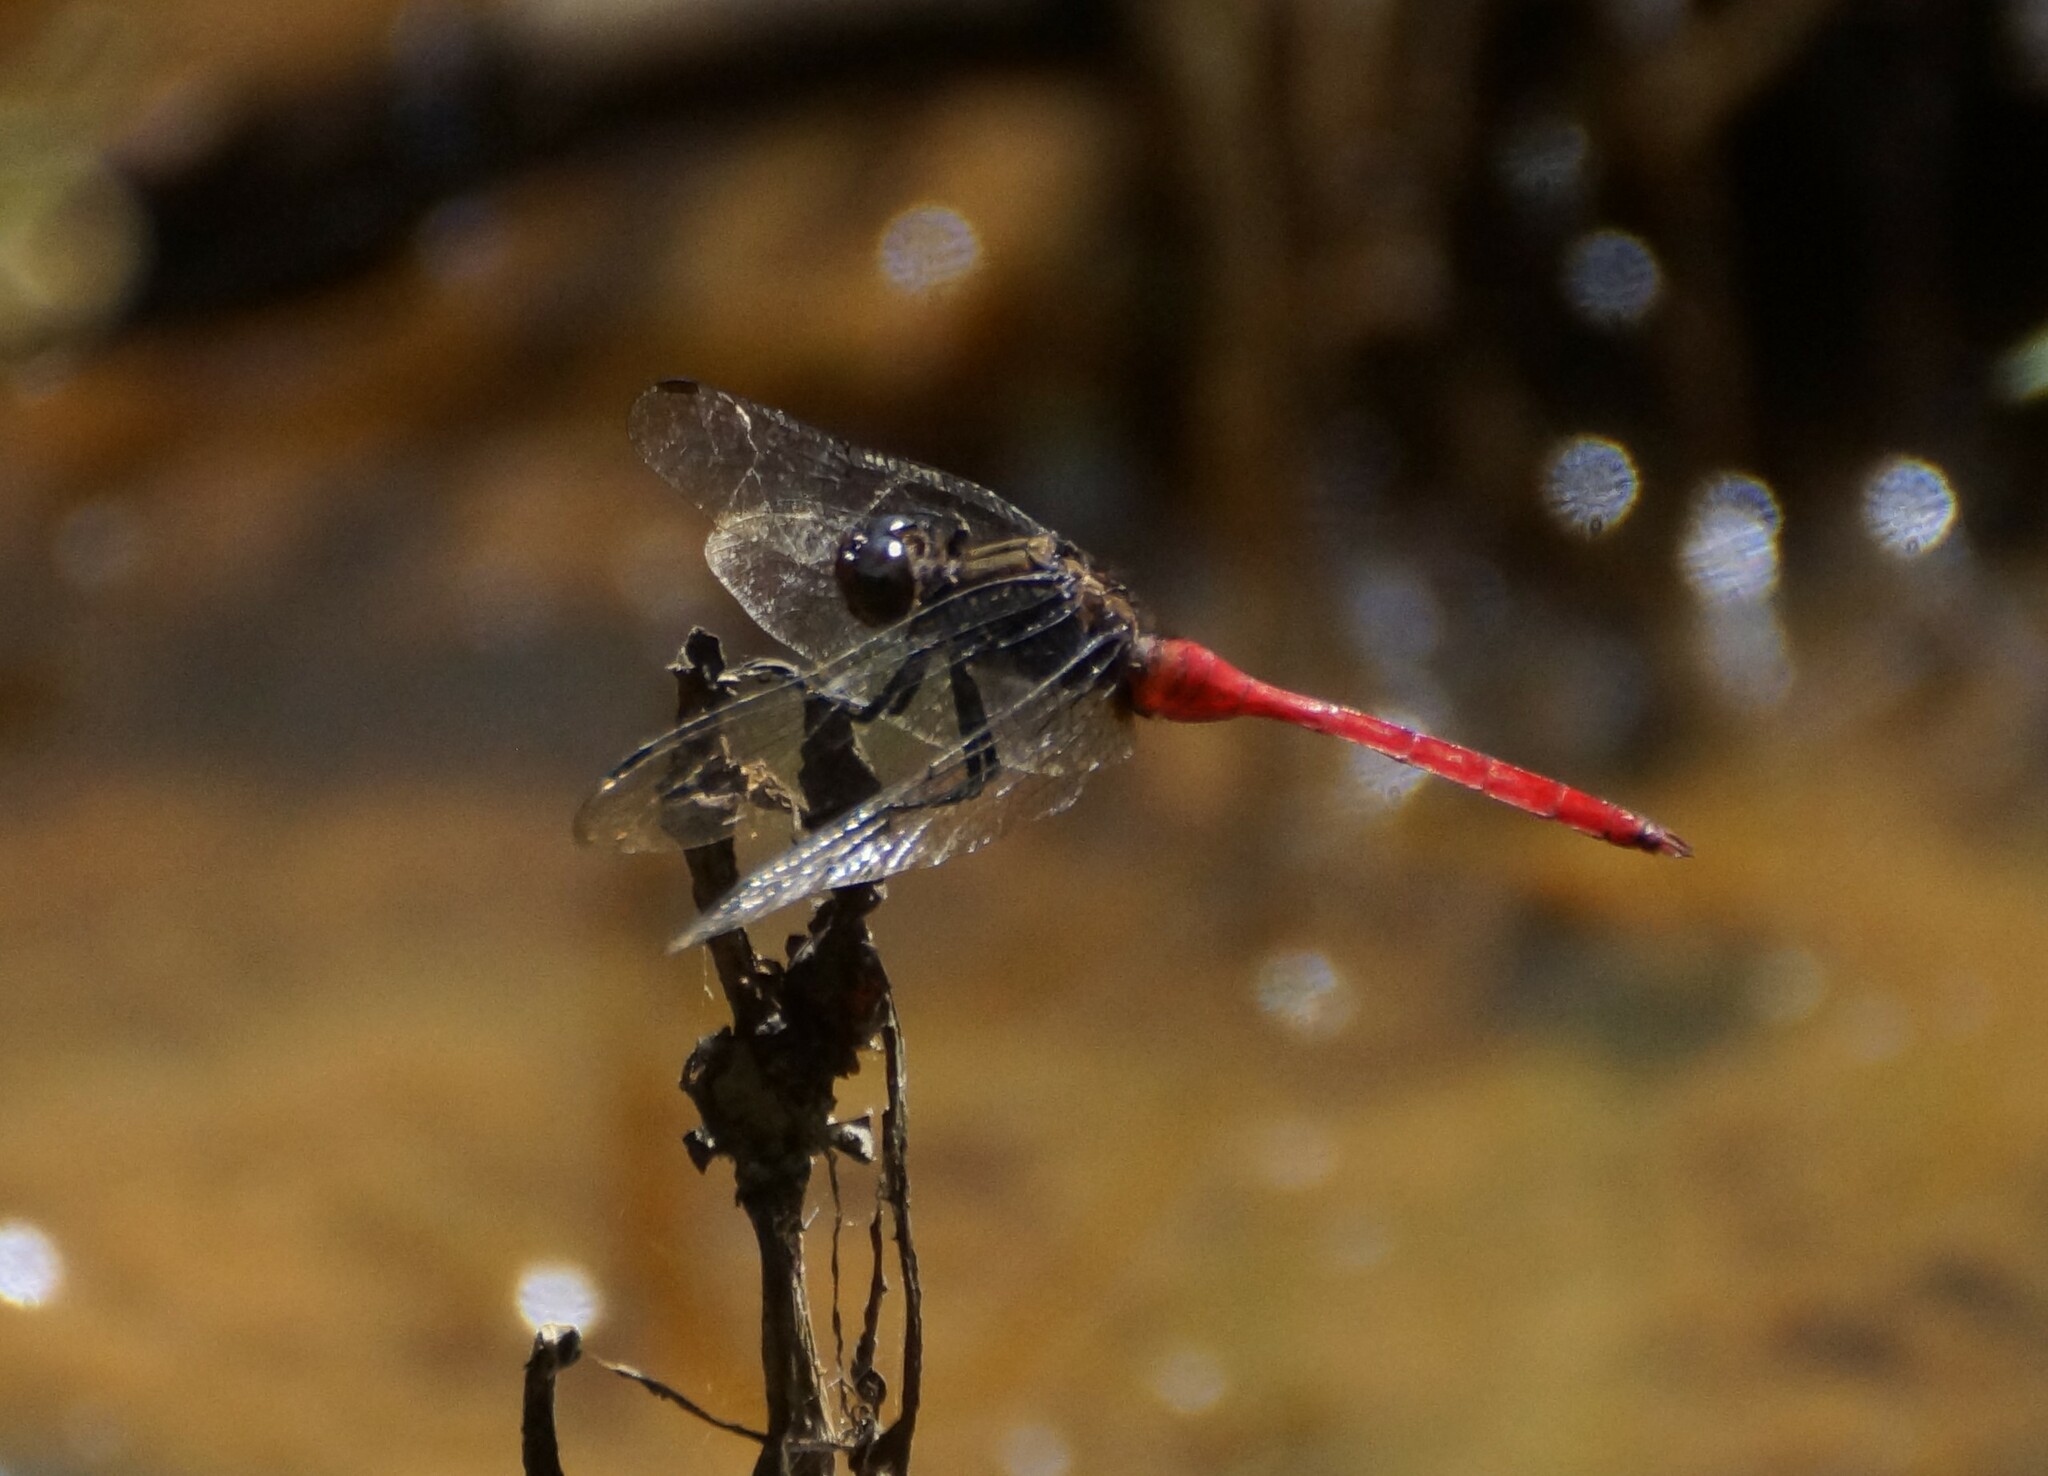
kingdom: Animalia
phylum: Arthropoda
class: Insecta
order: Odonata
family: Libellulidae
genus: Orthetrum
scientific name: Orthetrum villosovittatum
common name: Firery skimmer
